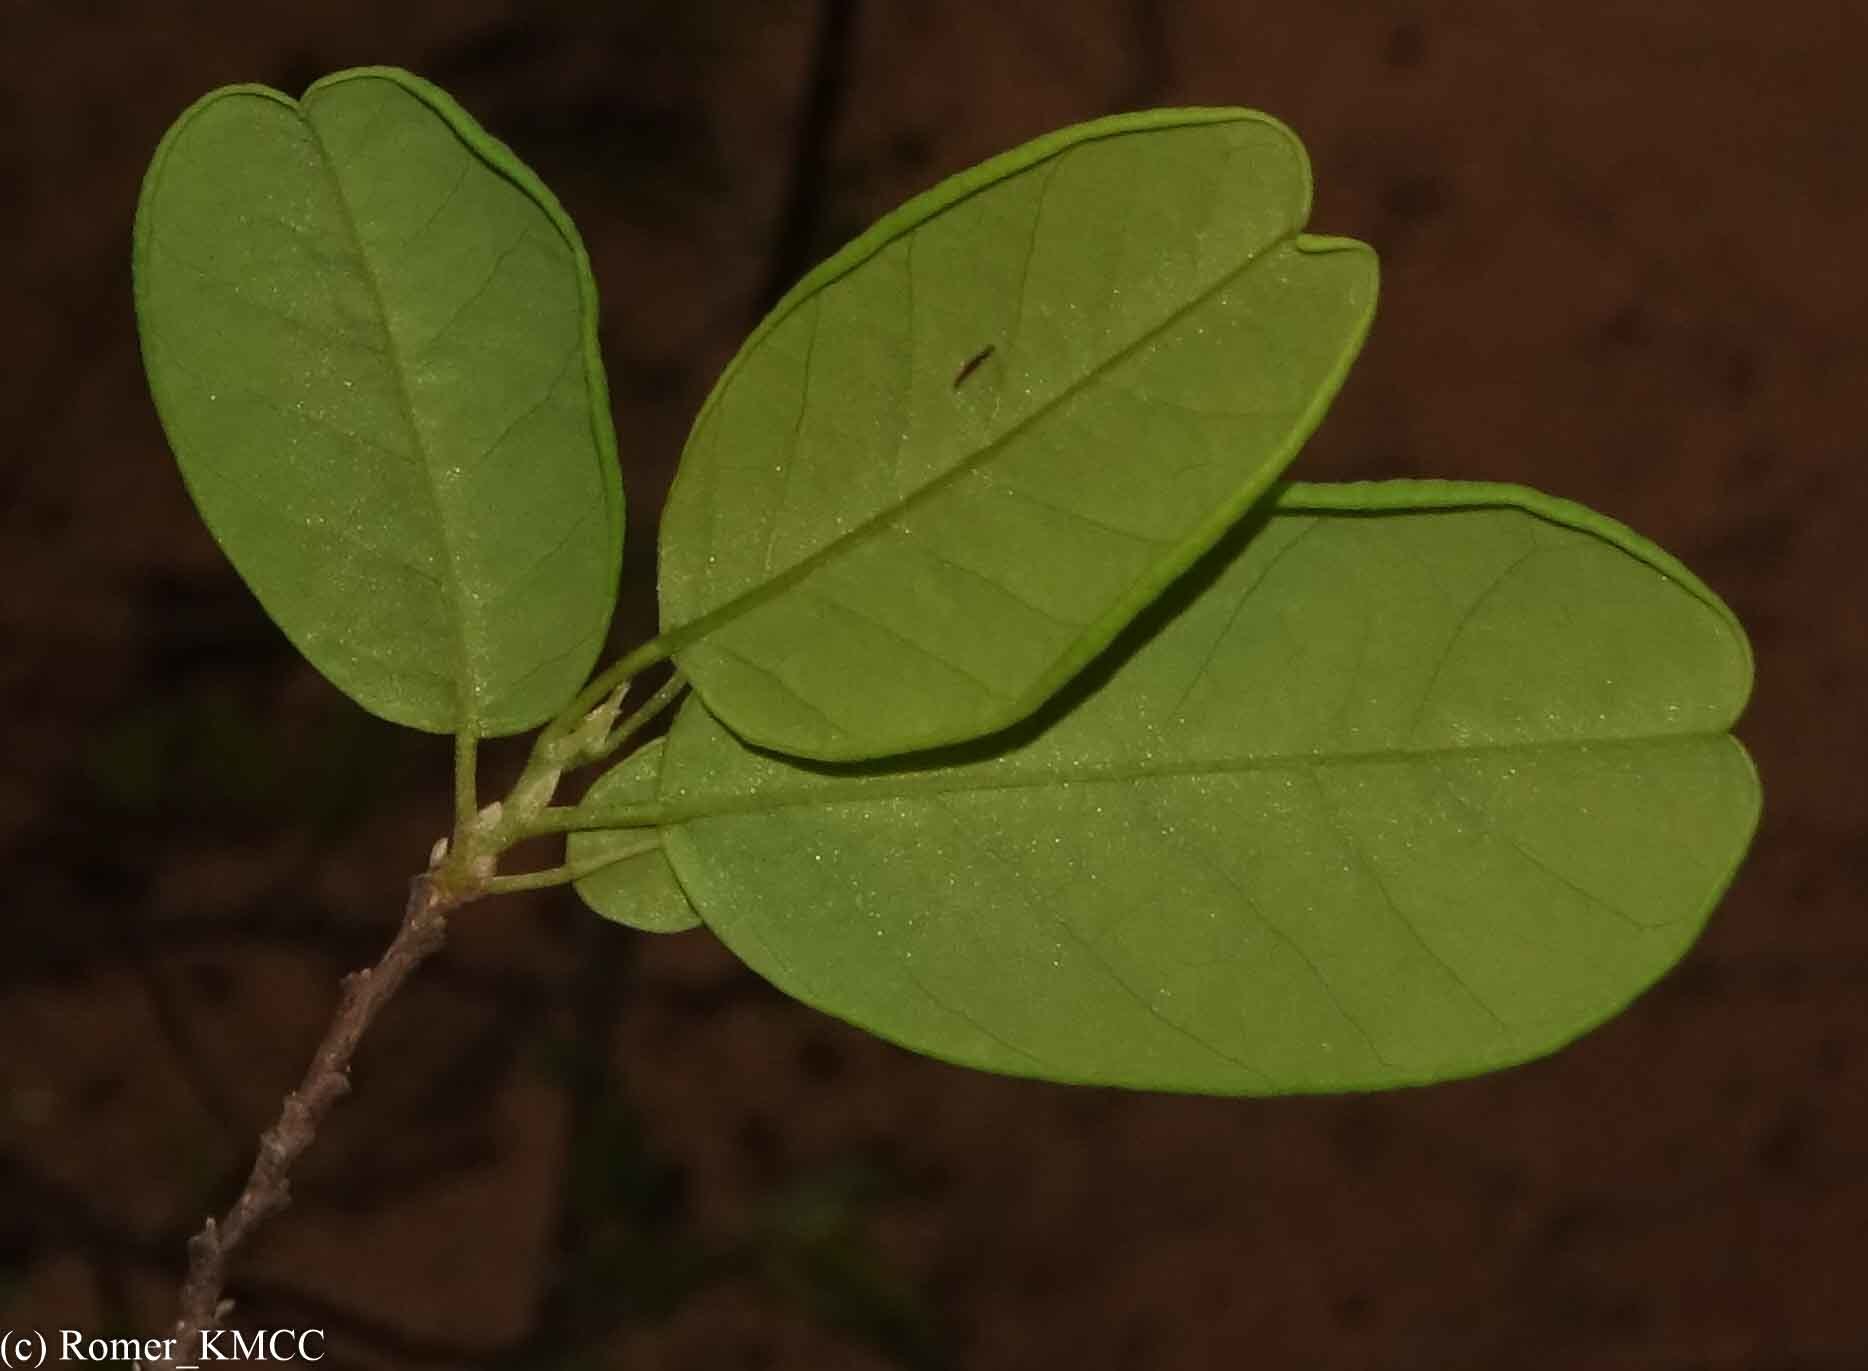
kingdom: Plantae
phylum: Tracheophyta
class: Magnoliopsida
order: Fabales
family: Fabaceae
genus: Baphia
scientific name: Baphia madagascariensis
